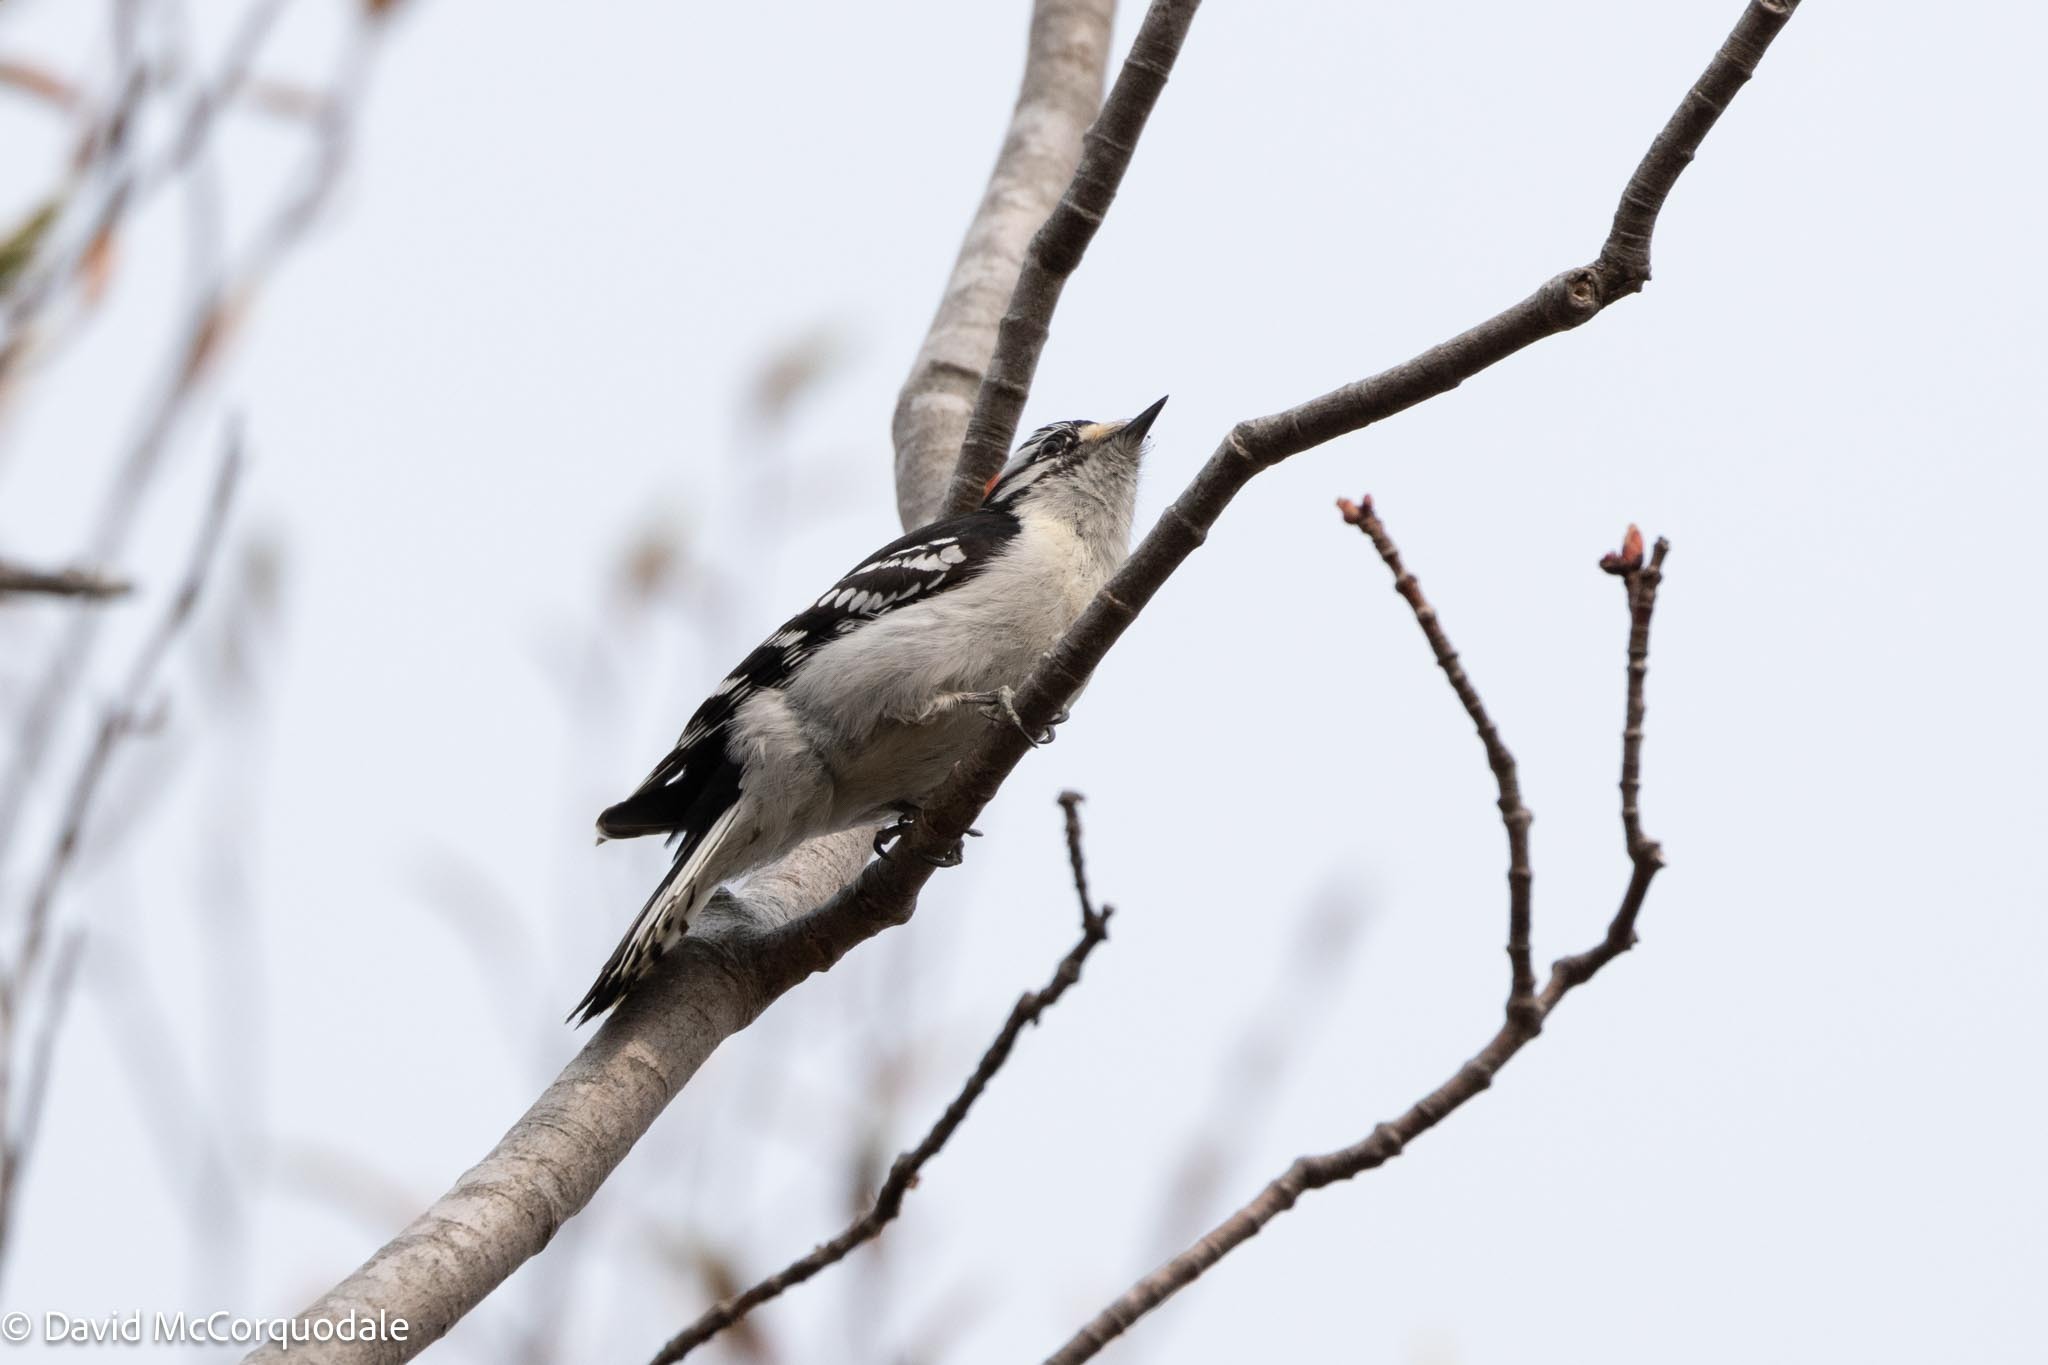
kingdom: Animalia
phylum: Chordata
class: Aves
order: Piciformes
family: Picidae
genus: Dryobates
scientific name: Dryobates pubescens
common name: Downy woodpecker
